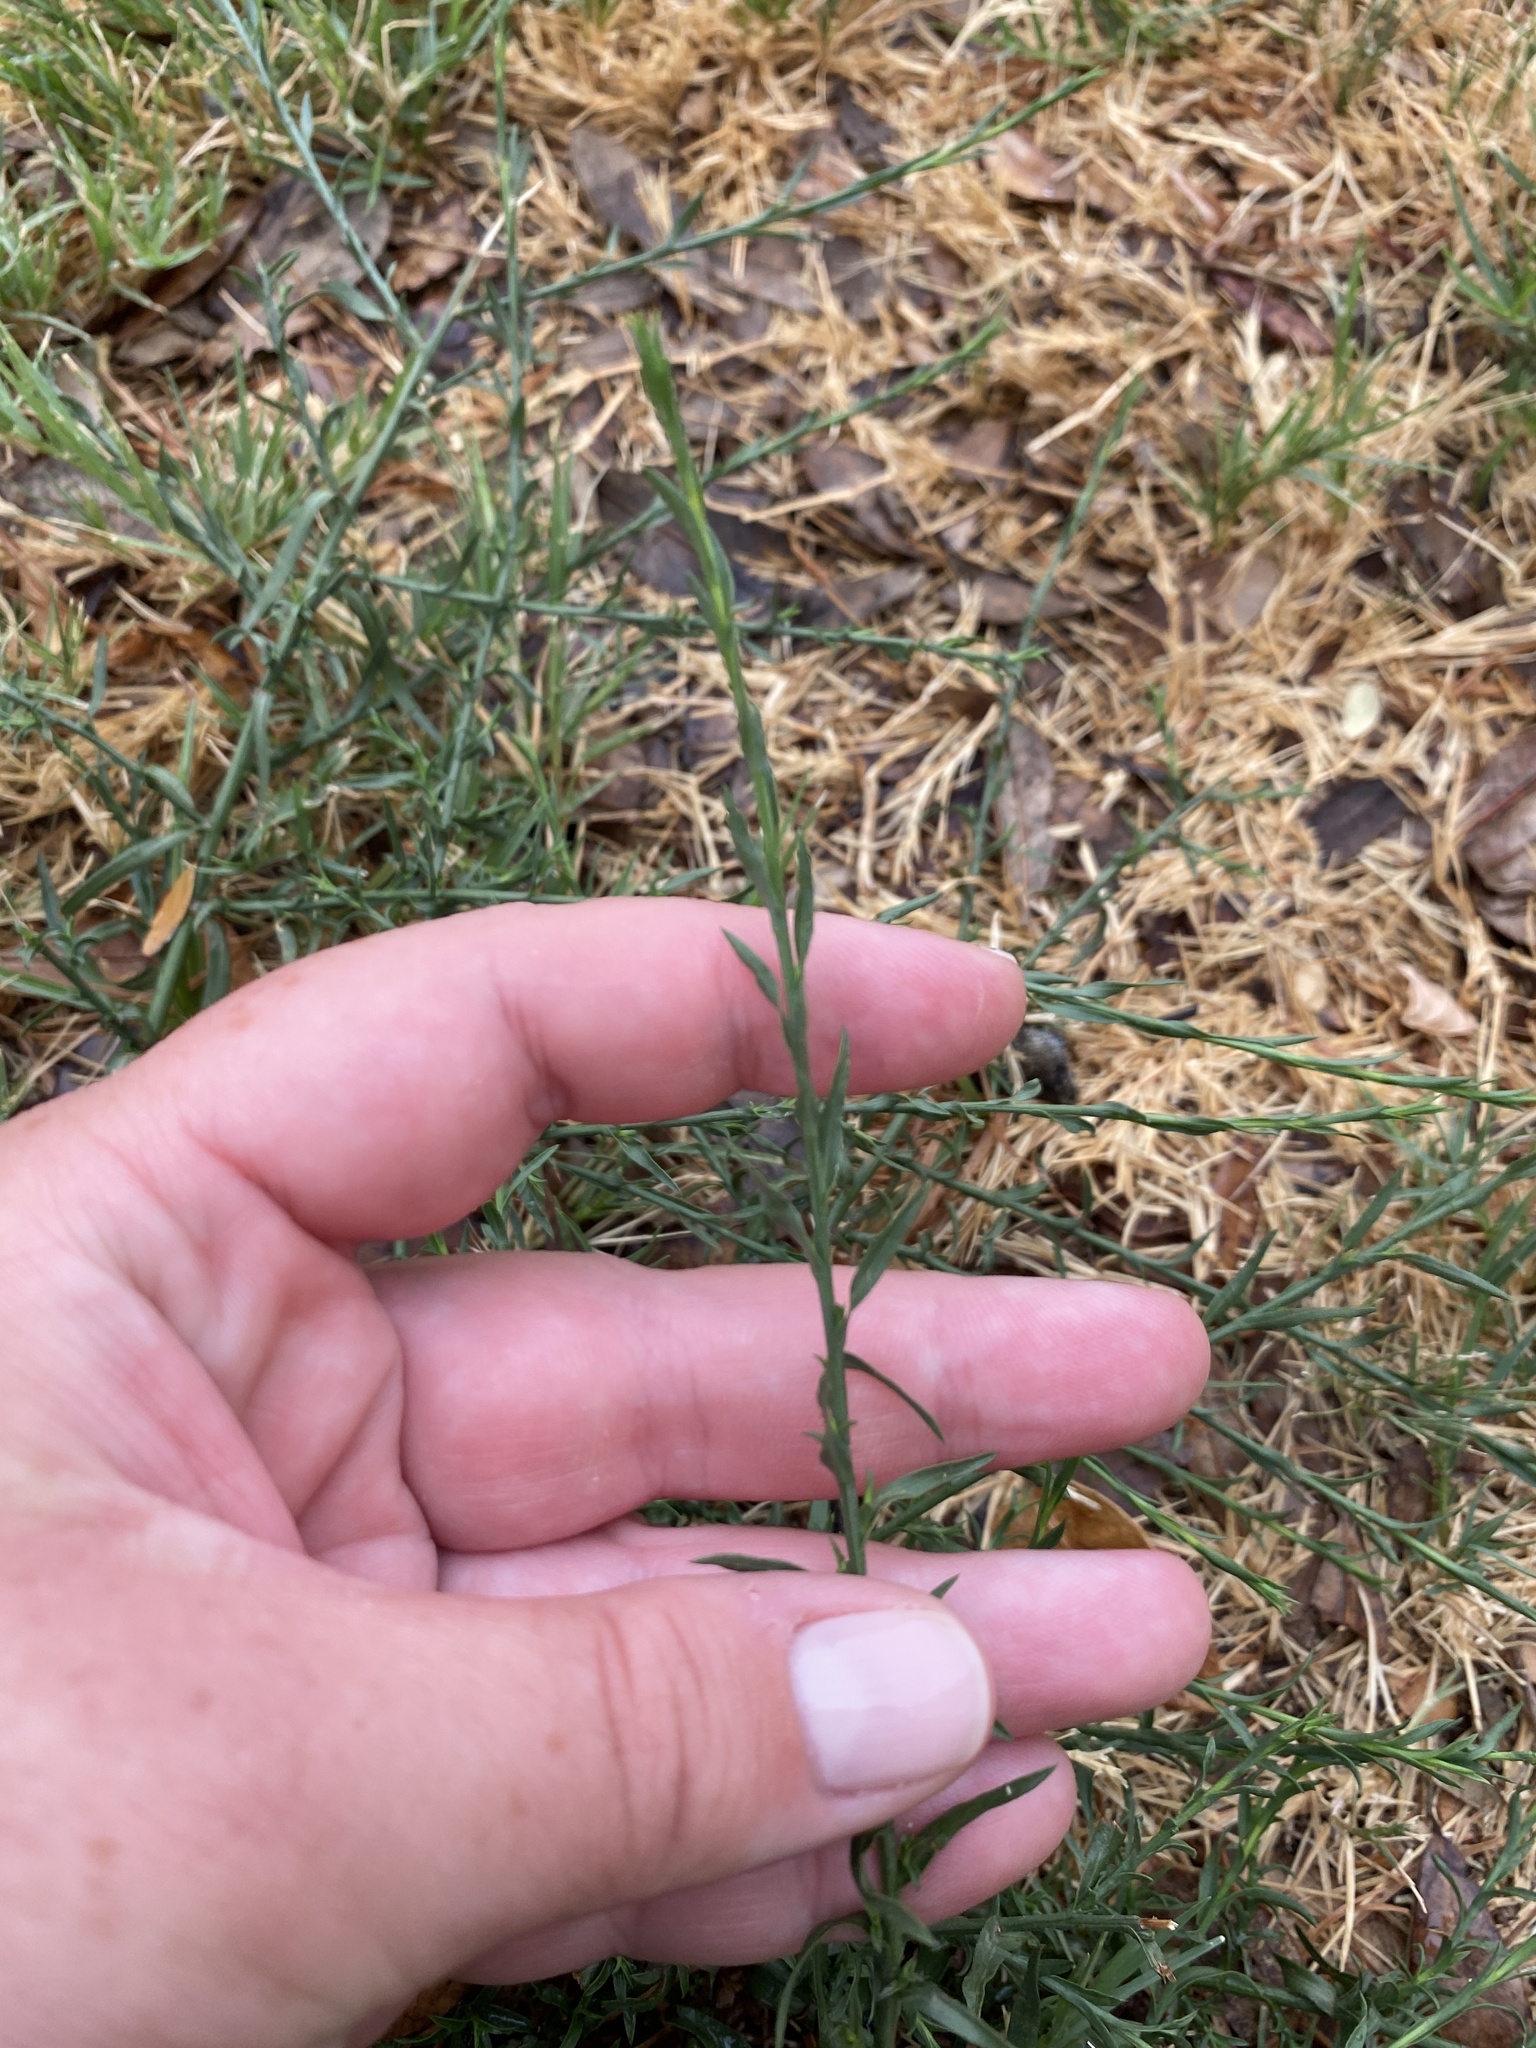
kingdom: Plantae
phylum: Tracheophyta
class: Magnoliopsida
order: Asterales
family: Asteraceae
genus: Symphyotrichum
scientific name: Symphyotrichum divaricatum
